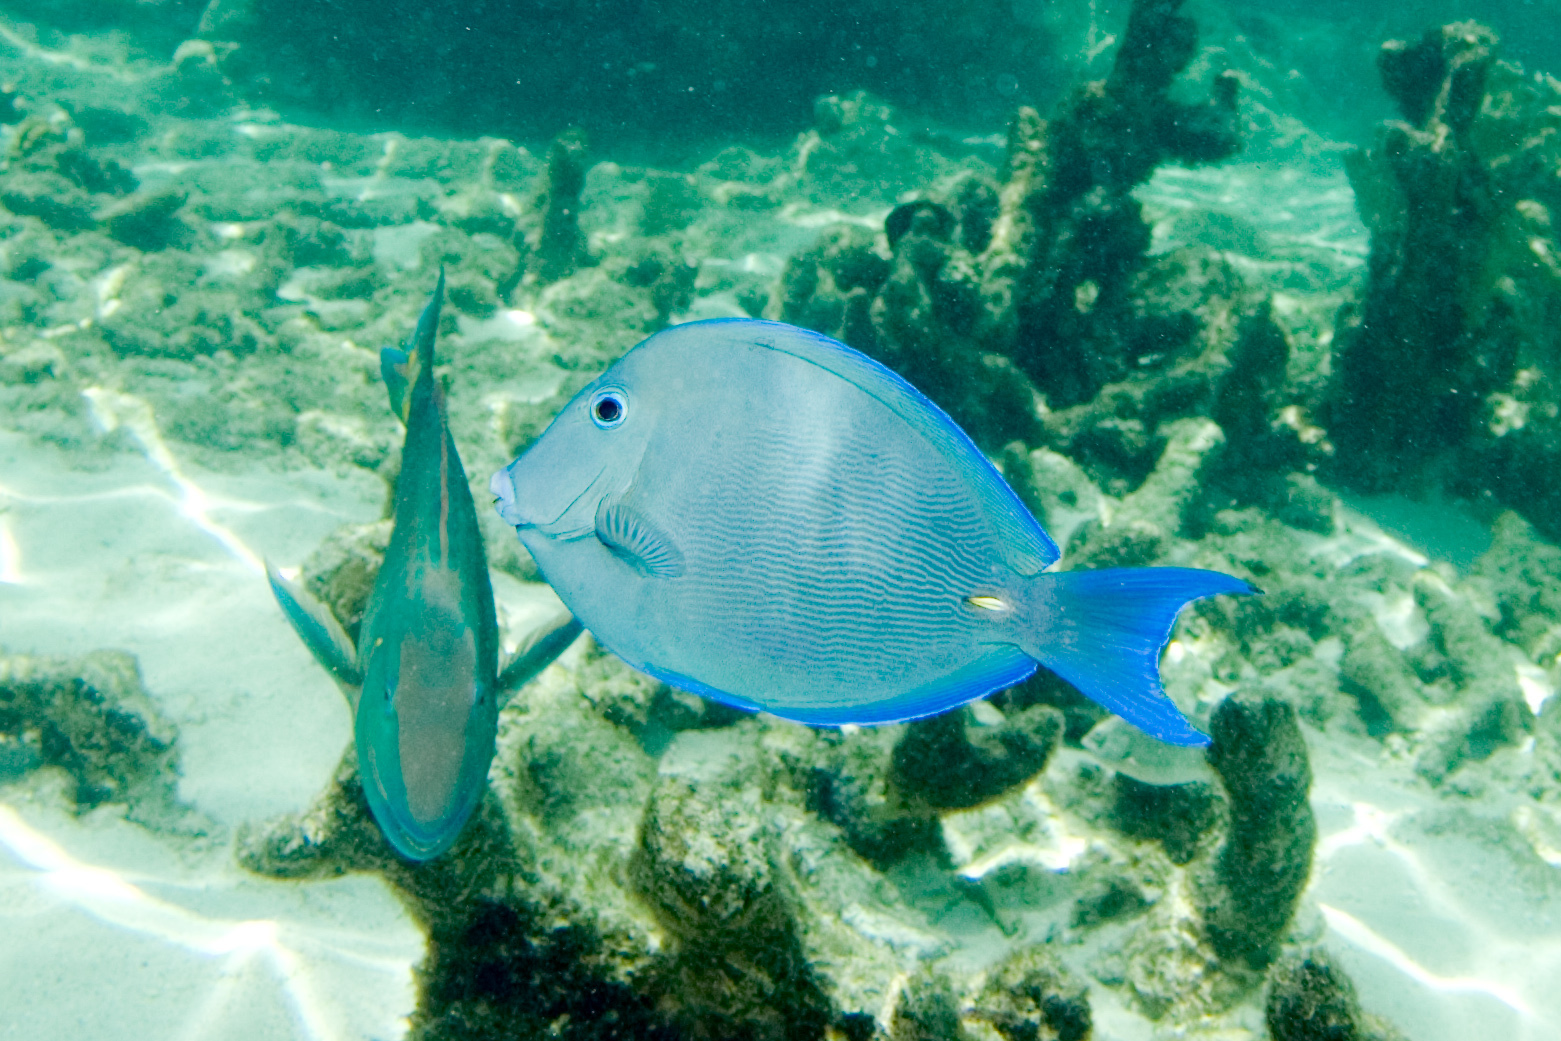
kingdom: Animalia
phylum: Chordata
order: Perciformes
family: Acanthuridae
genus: Acanthurus
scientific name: Acanthurus coeruleus
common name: Blue tang
